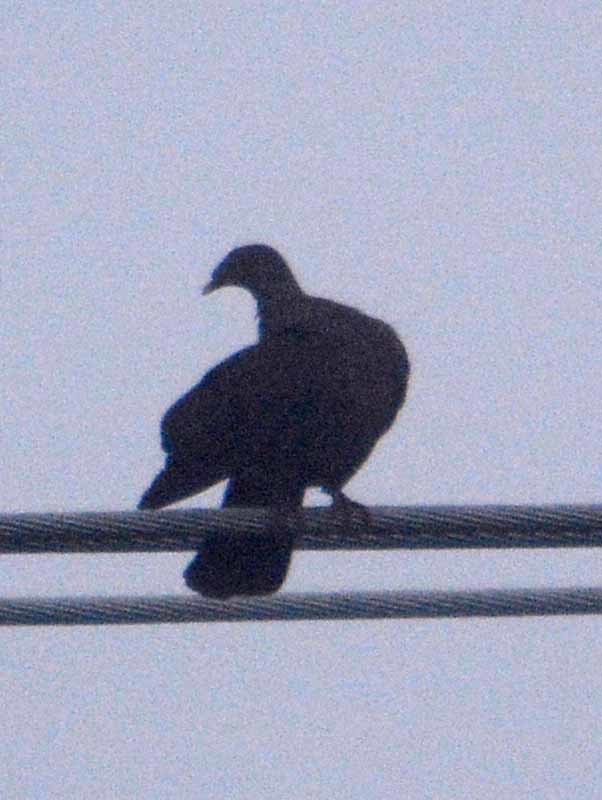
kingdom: Animalia
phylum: Chordata
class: Aves
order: Columbiformes
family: Columbidae
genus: Patagioenas
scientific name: Patagioenas flavirostris
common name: Red-billed pigeon
